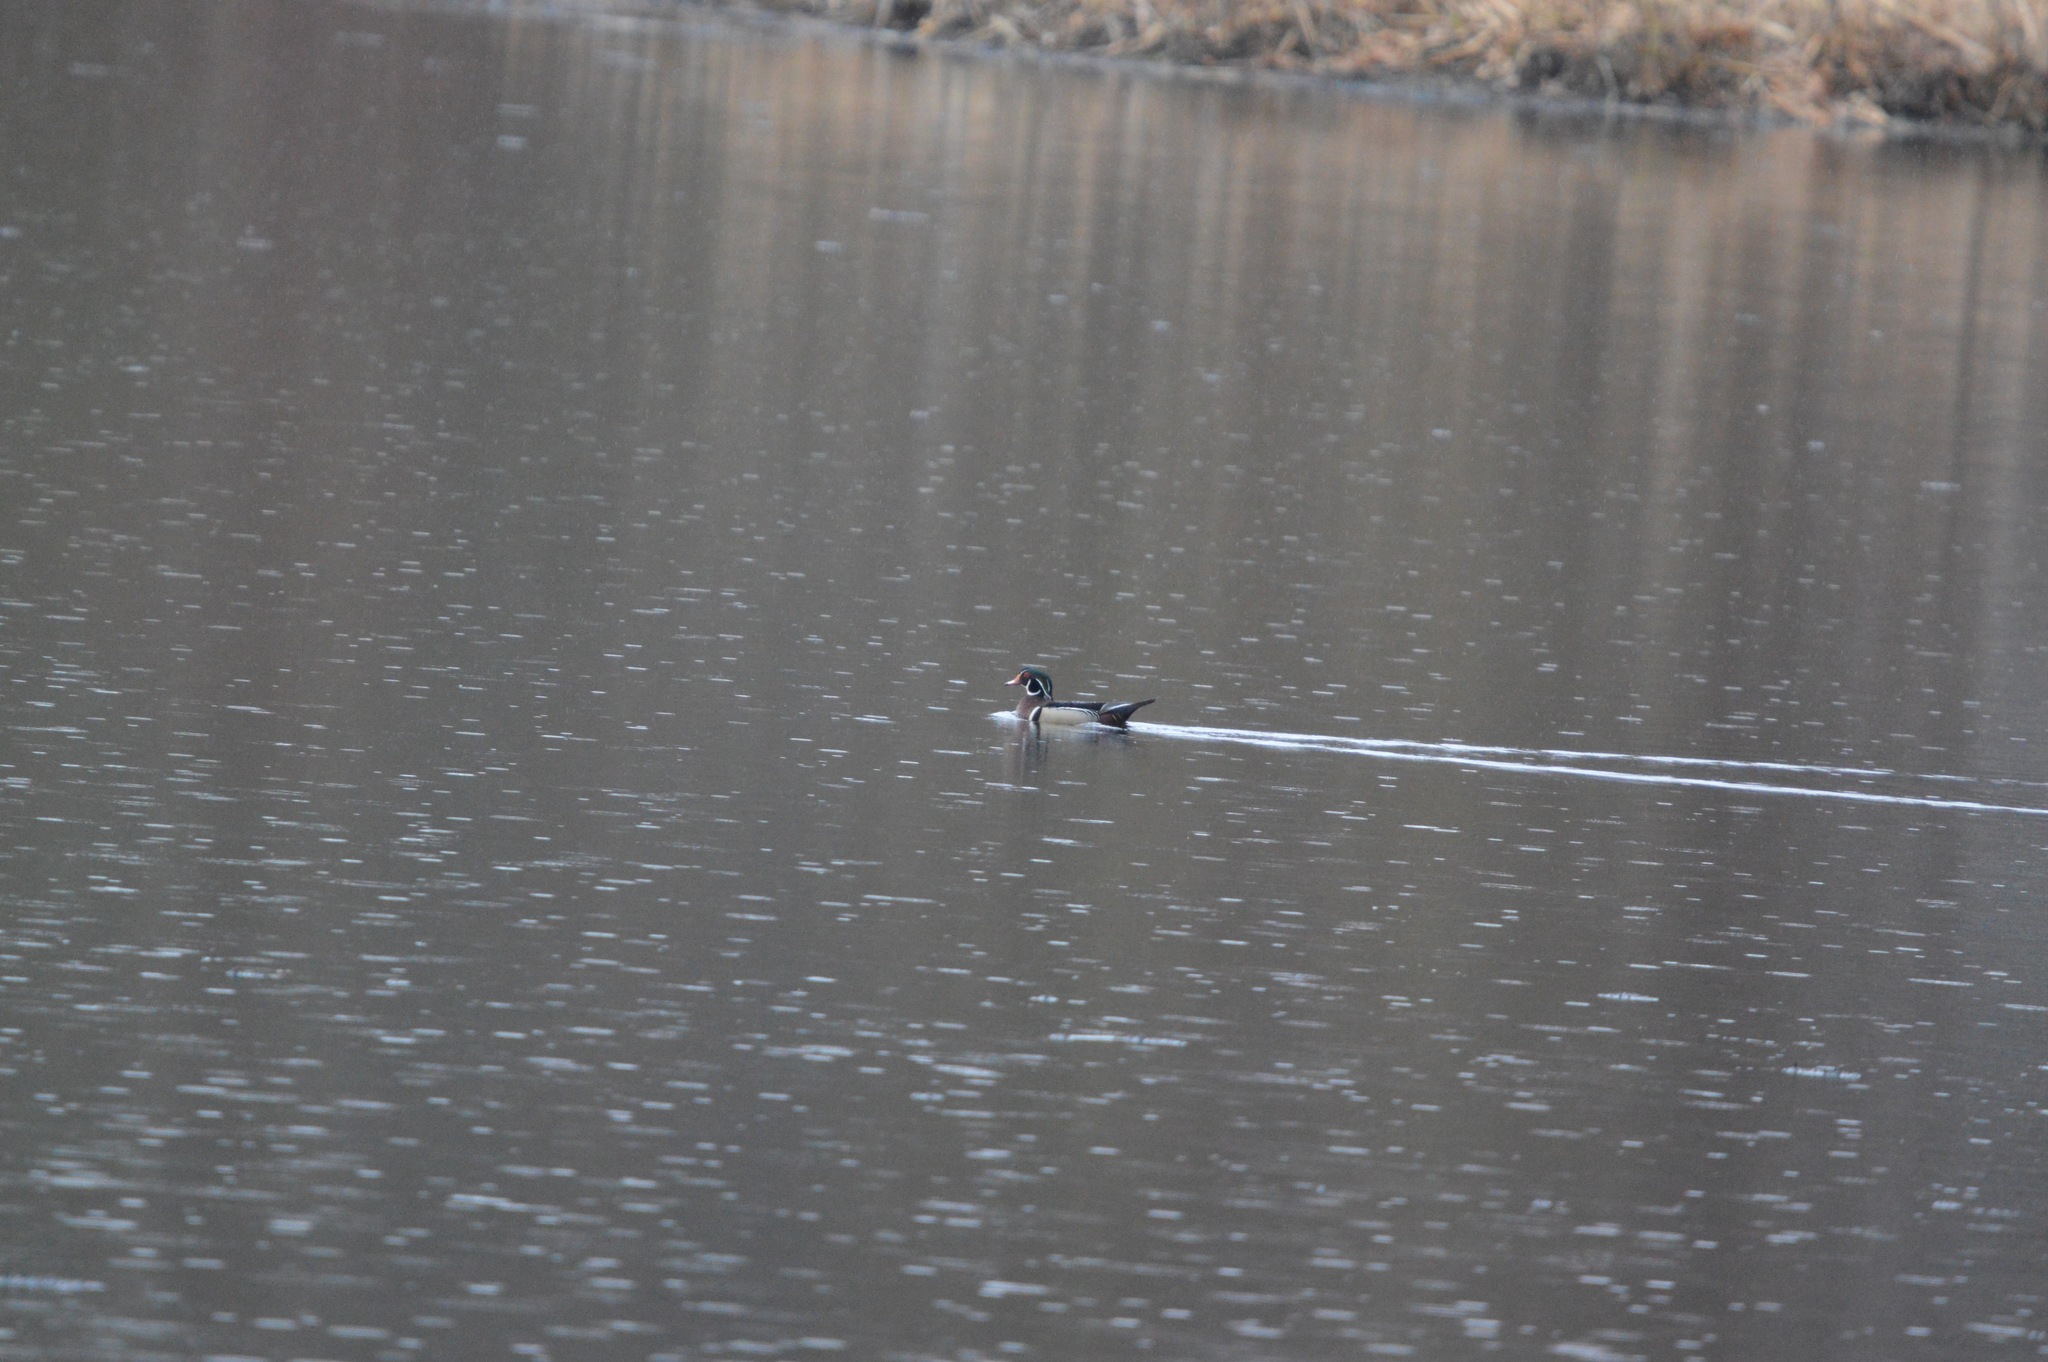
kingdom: Animalia
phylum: Chordata
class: Aves
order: Anseriformes
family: Anatidae
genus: Aix
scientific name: Aix sponsa
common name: Wood duck
